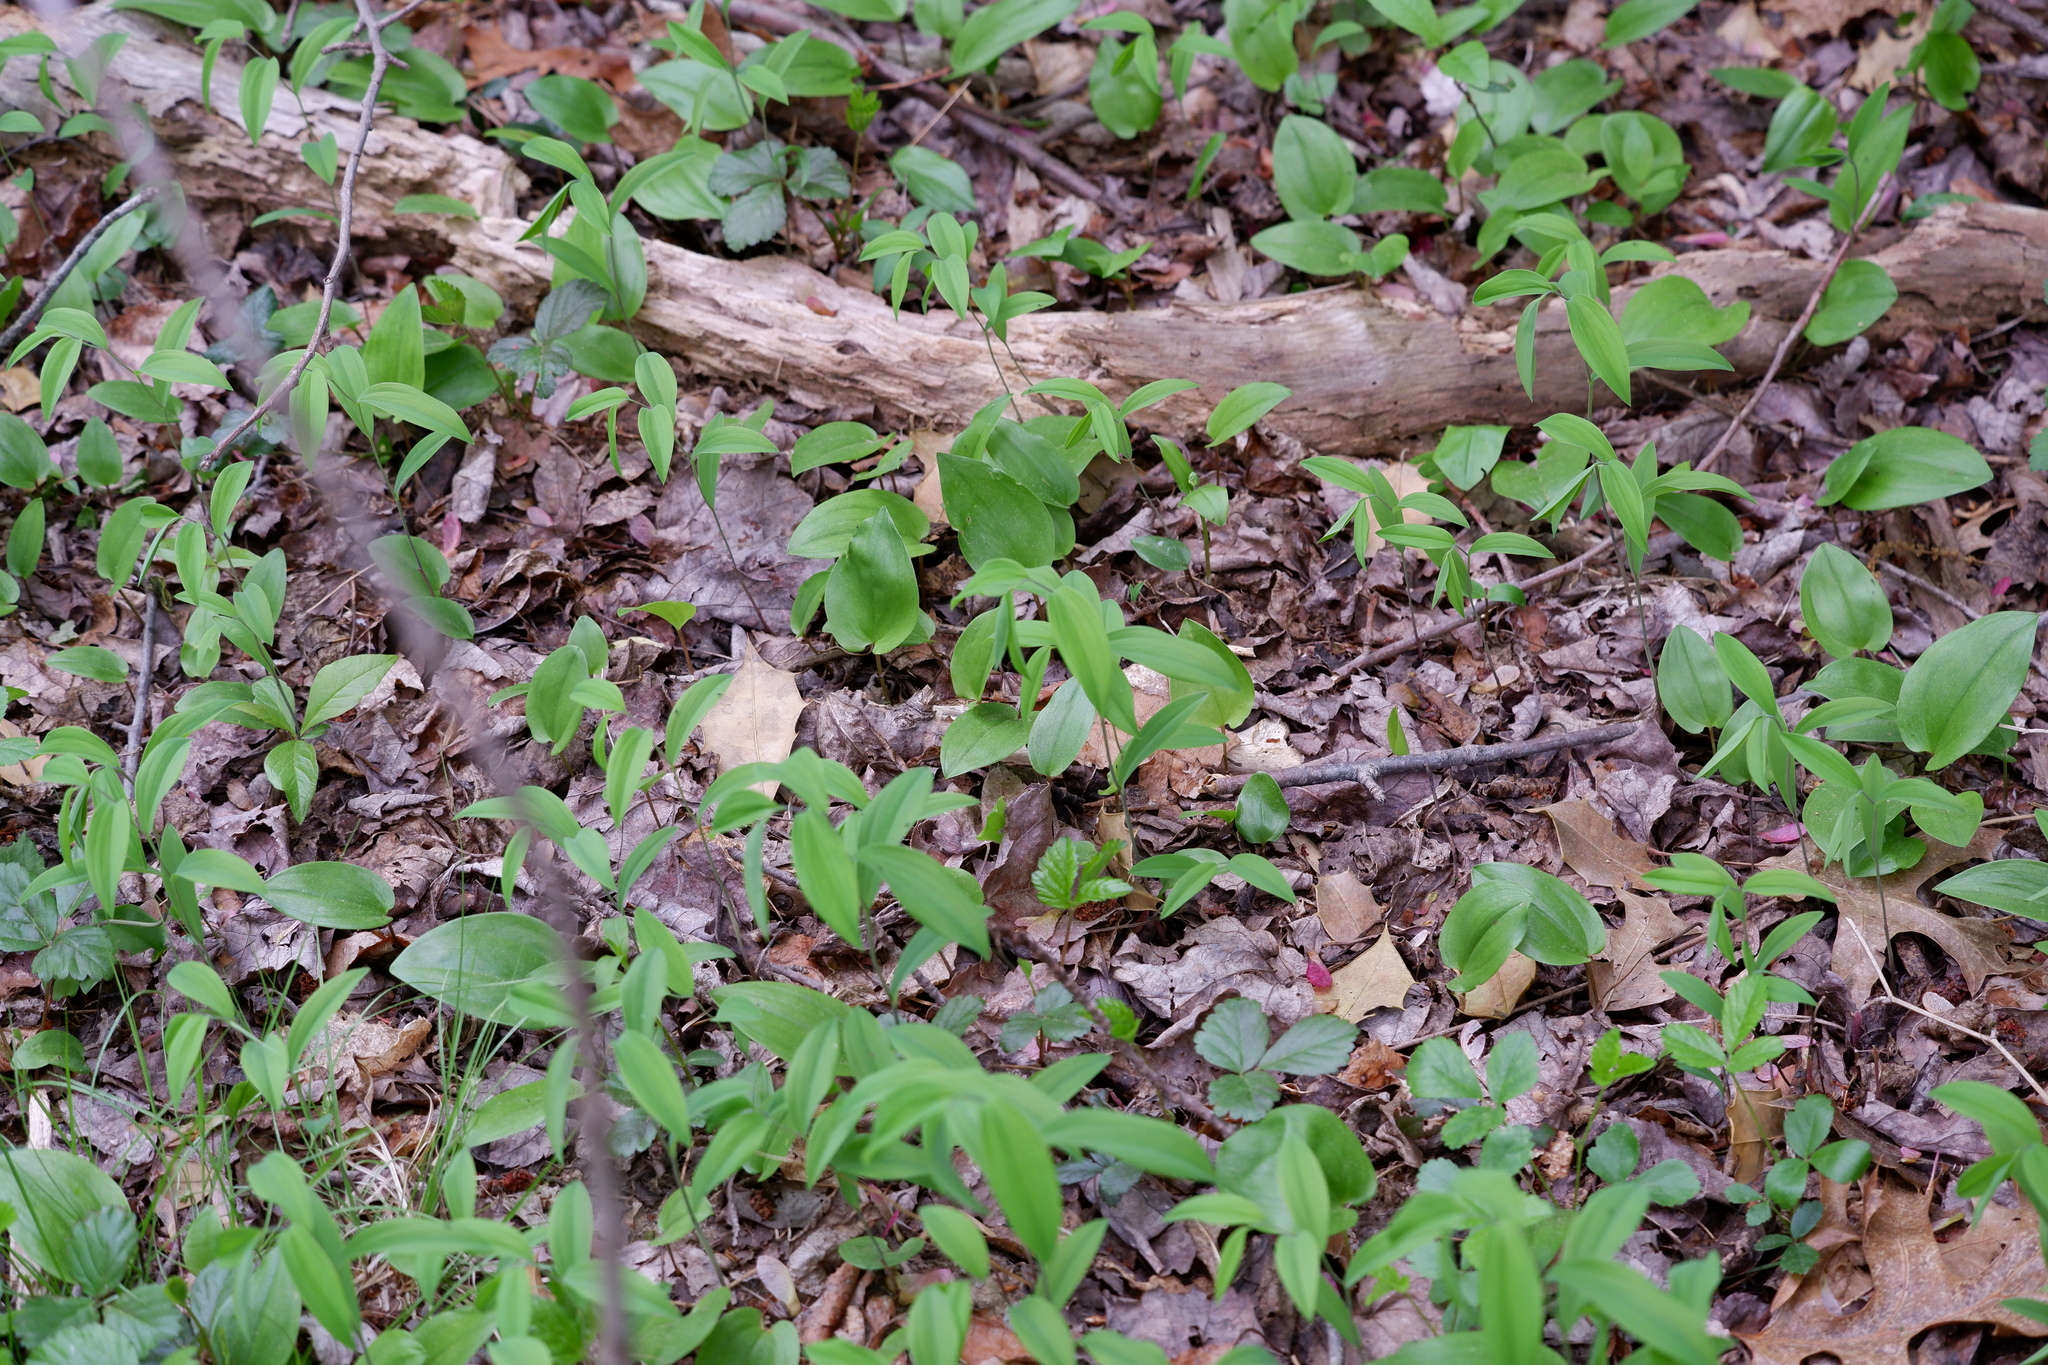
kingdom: Plantae
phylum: Tracheophyta
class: Liliopsida
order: Liliales
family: Colchicaceae
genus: Uvularia
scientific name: Uvularia sessilifolia
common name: Straw-lily
